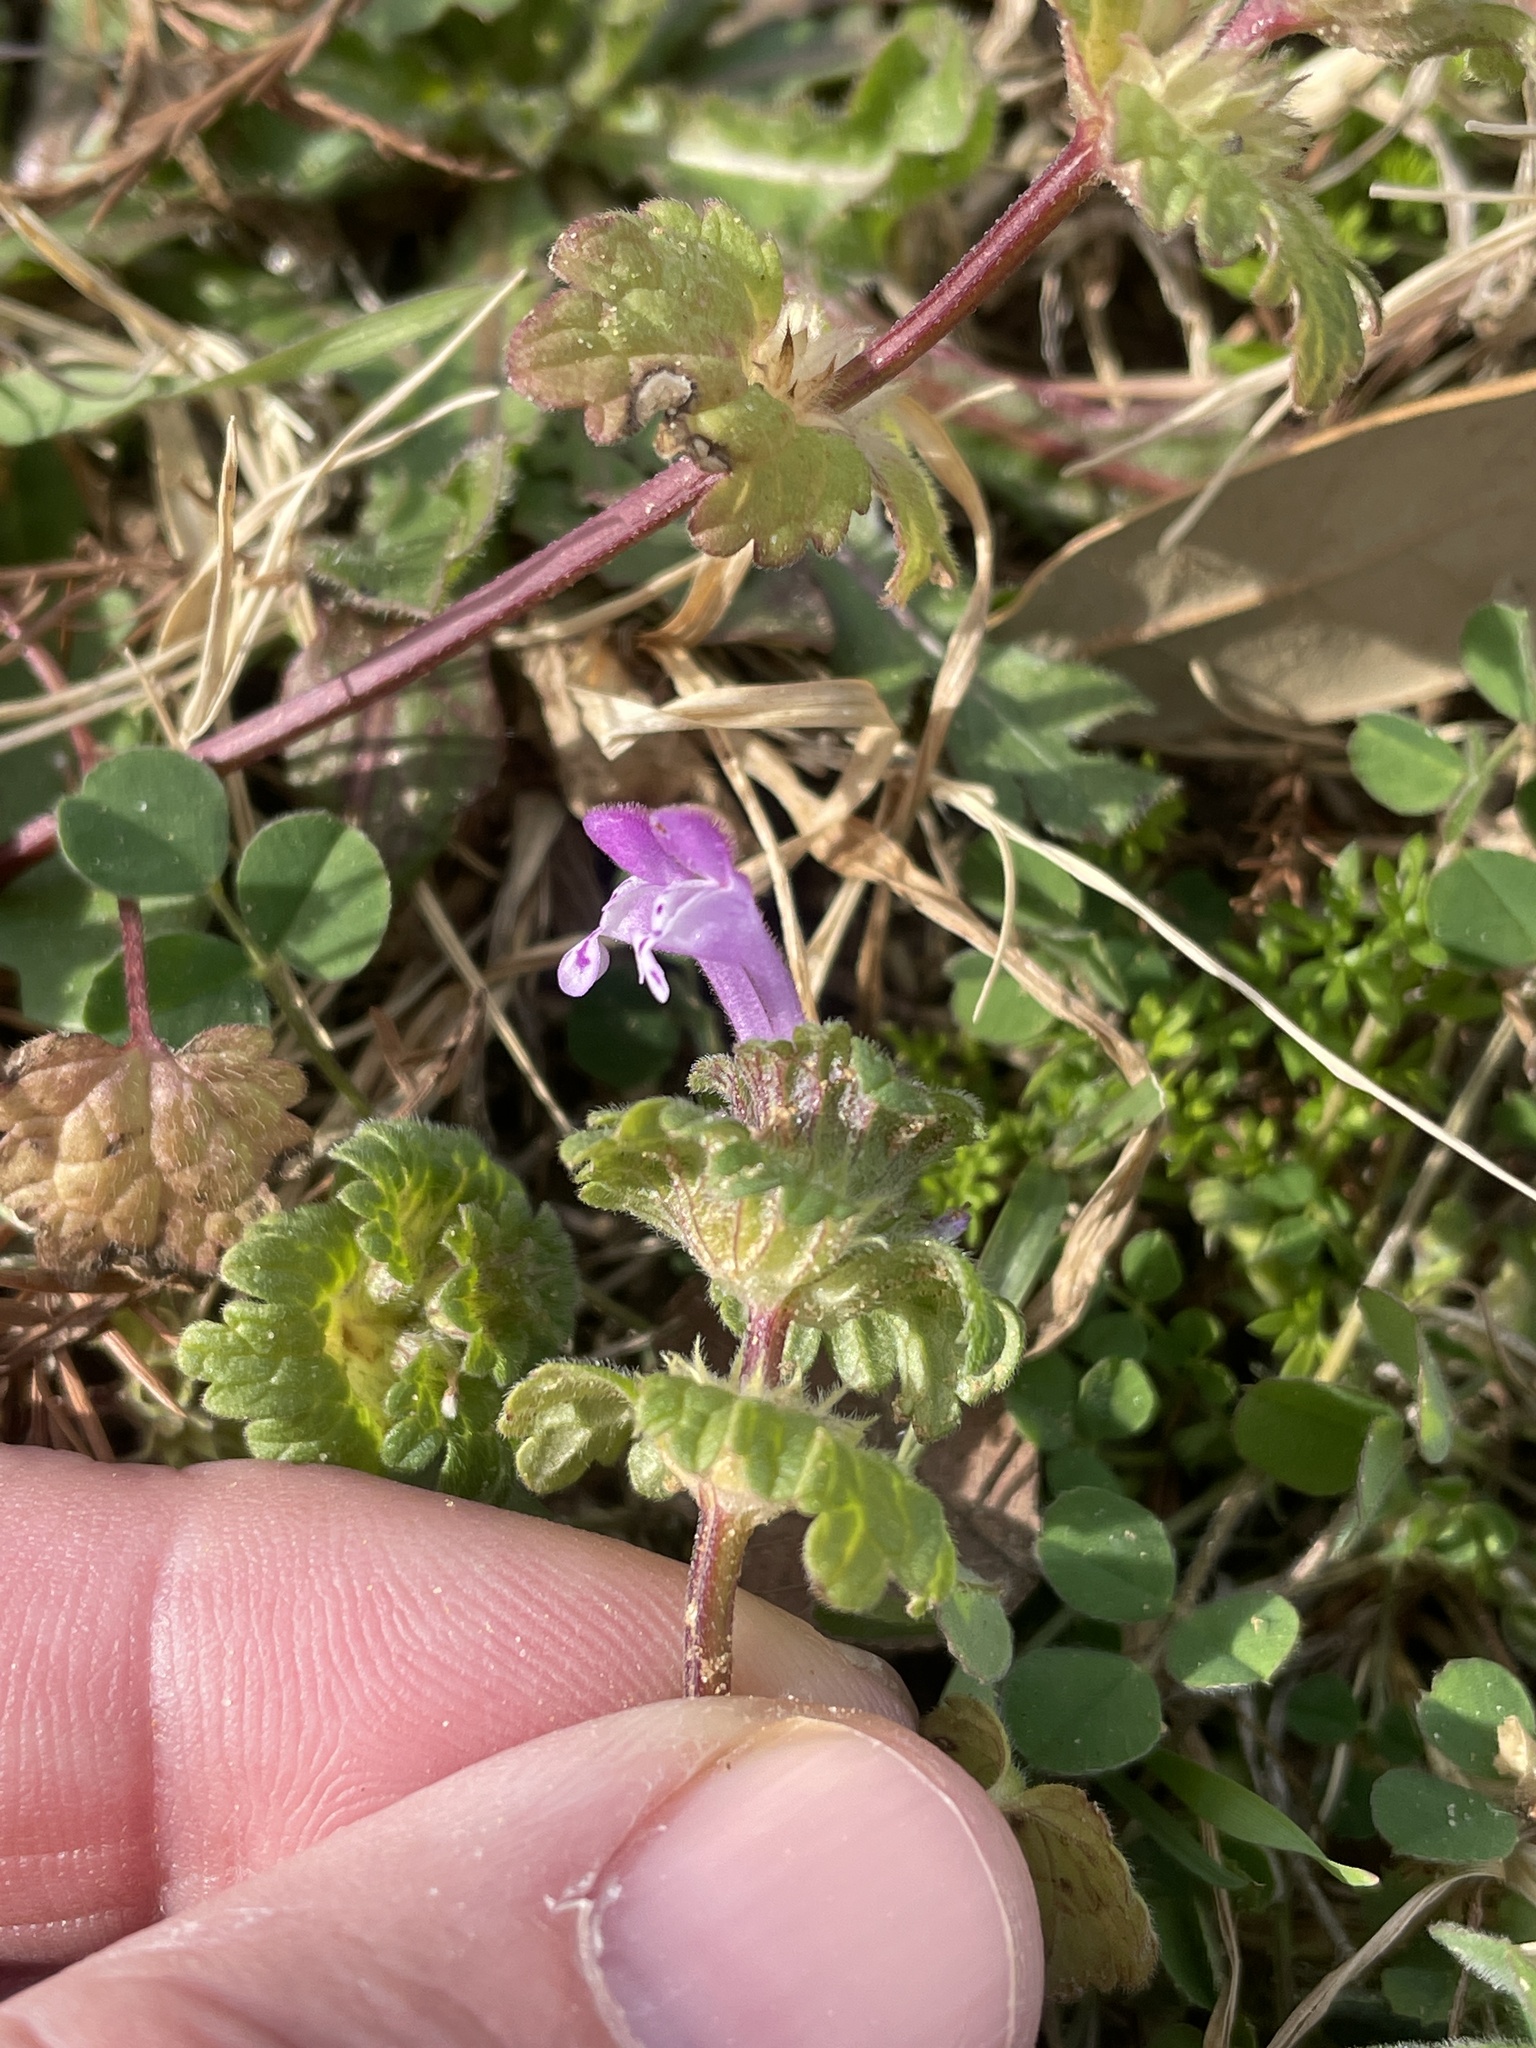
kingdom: Plantae
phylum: Tracheophyta
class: Magnoliopsida
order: Lamiales
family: Lamiaceae
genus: Lamium
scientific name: Lamium amplexicaule
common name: Henbit dead-nettle
